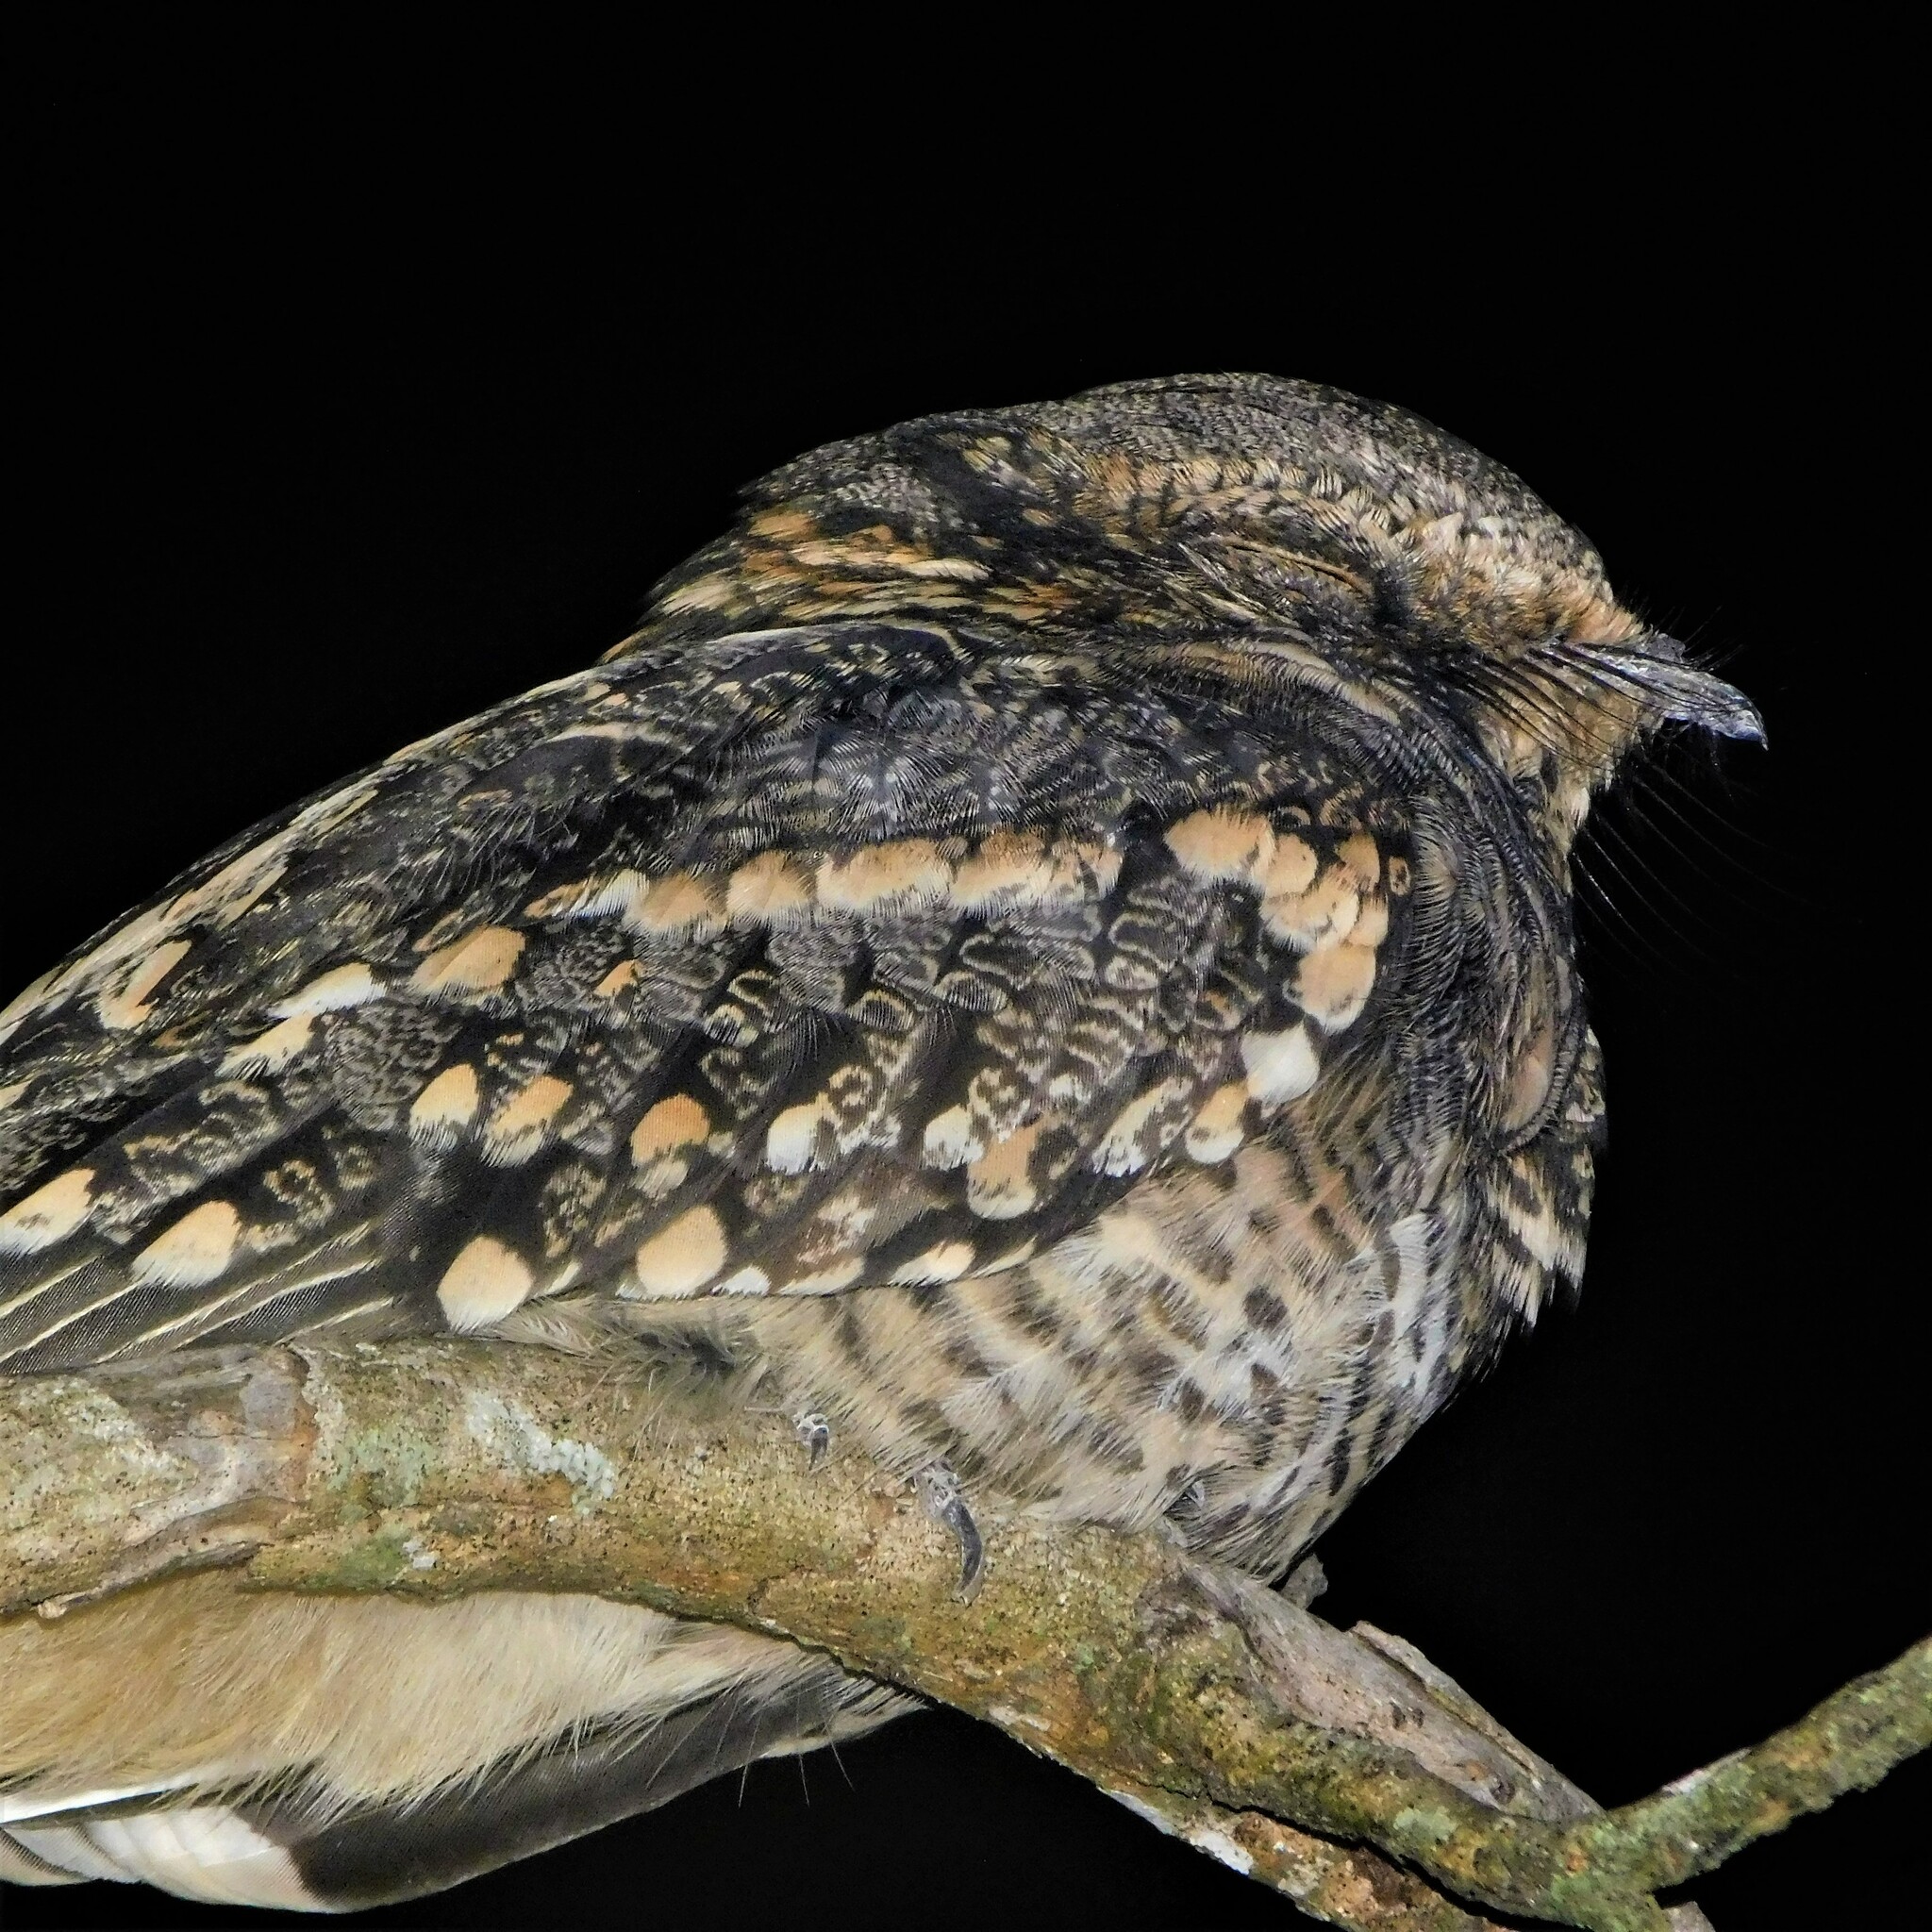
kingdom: Animalia
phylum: Chordata
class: Aves
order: Caprimulgiformes
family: Caprimulgidae
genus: Hydropsalis
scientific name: Hydropsalis torquata
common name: Scissor-tailed nightjar
